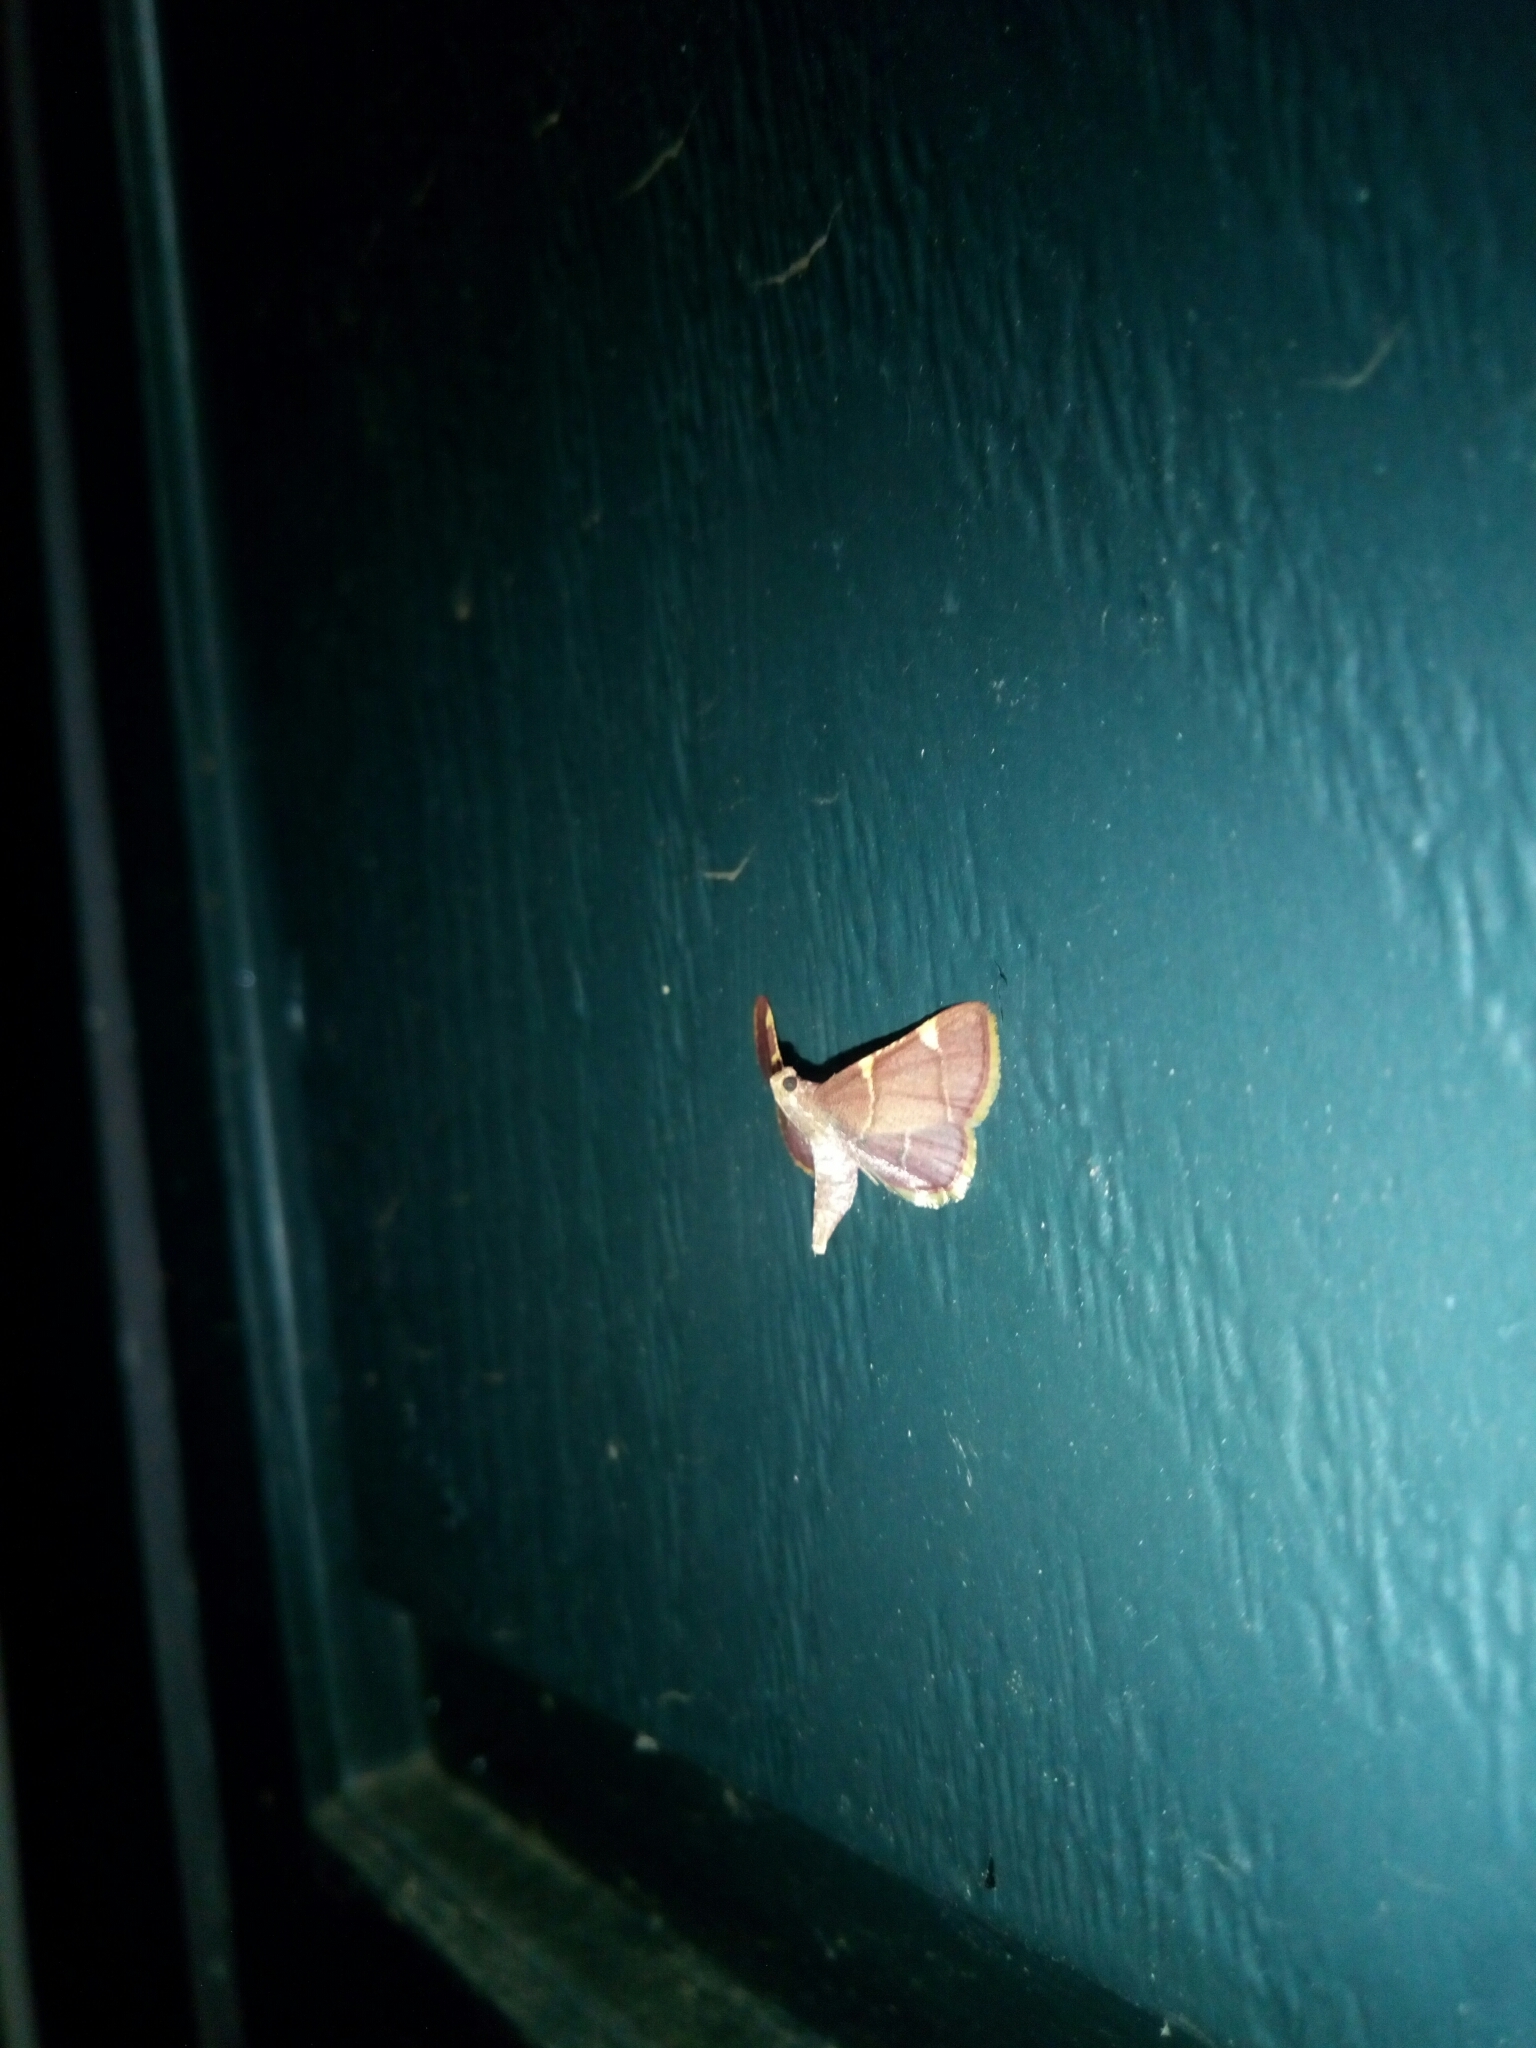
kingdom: Animalia
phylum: Arthropoda
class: Insecta
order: Lepidoptera
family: Pyralidae
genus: Hypsopygia
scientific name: Hypsopygia olinalis
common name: Yellow-fringed dolichomia moth
